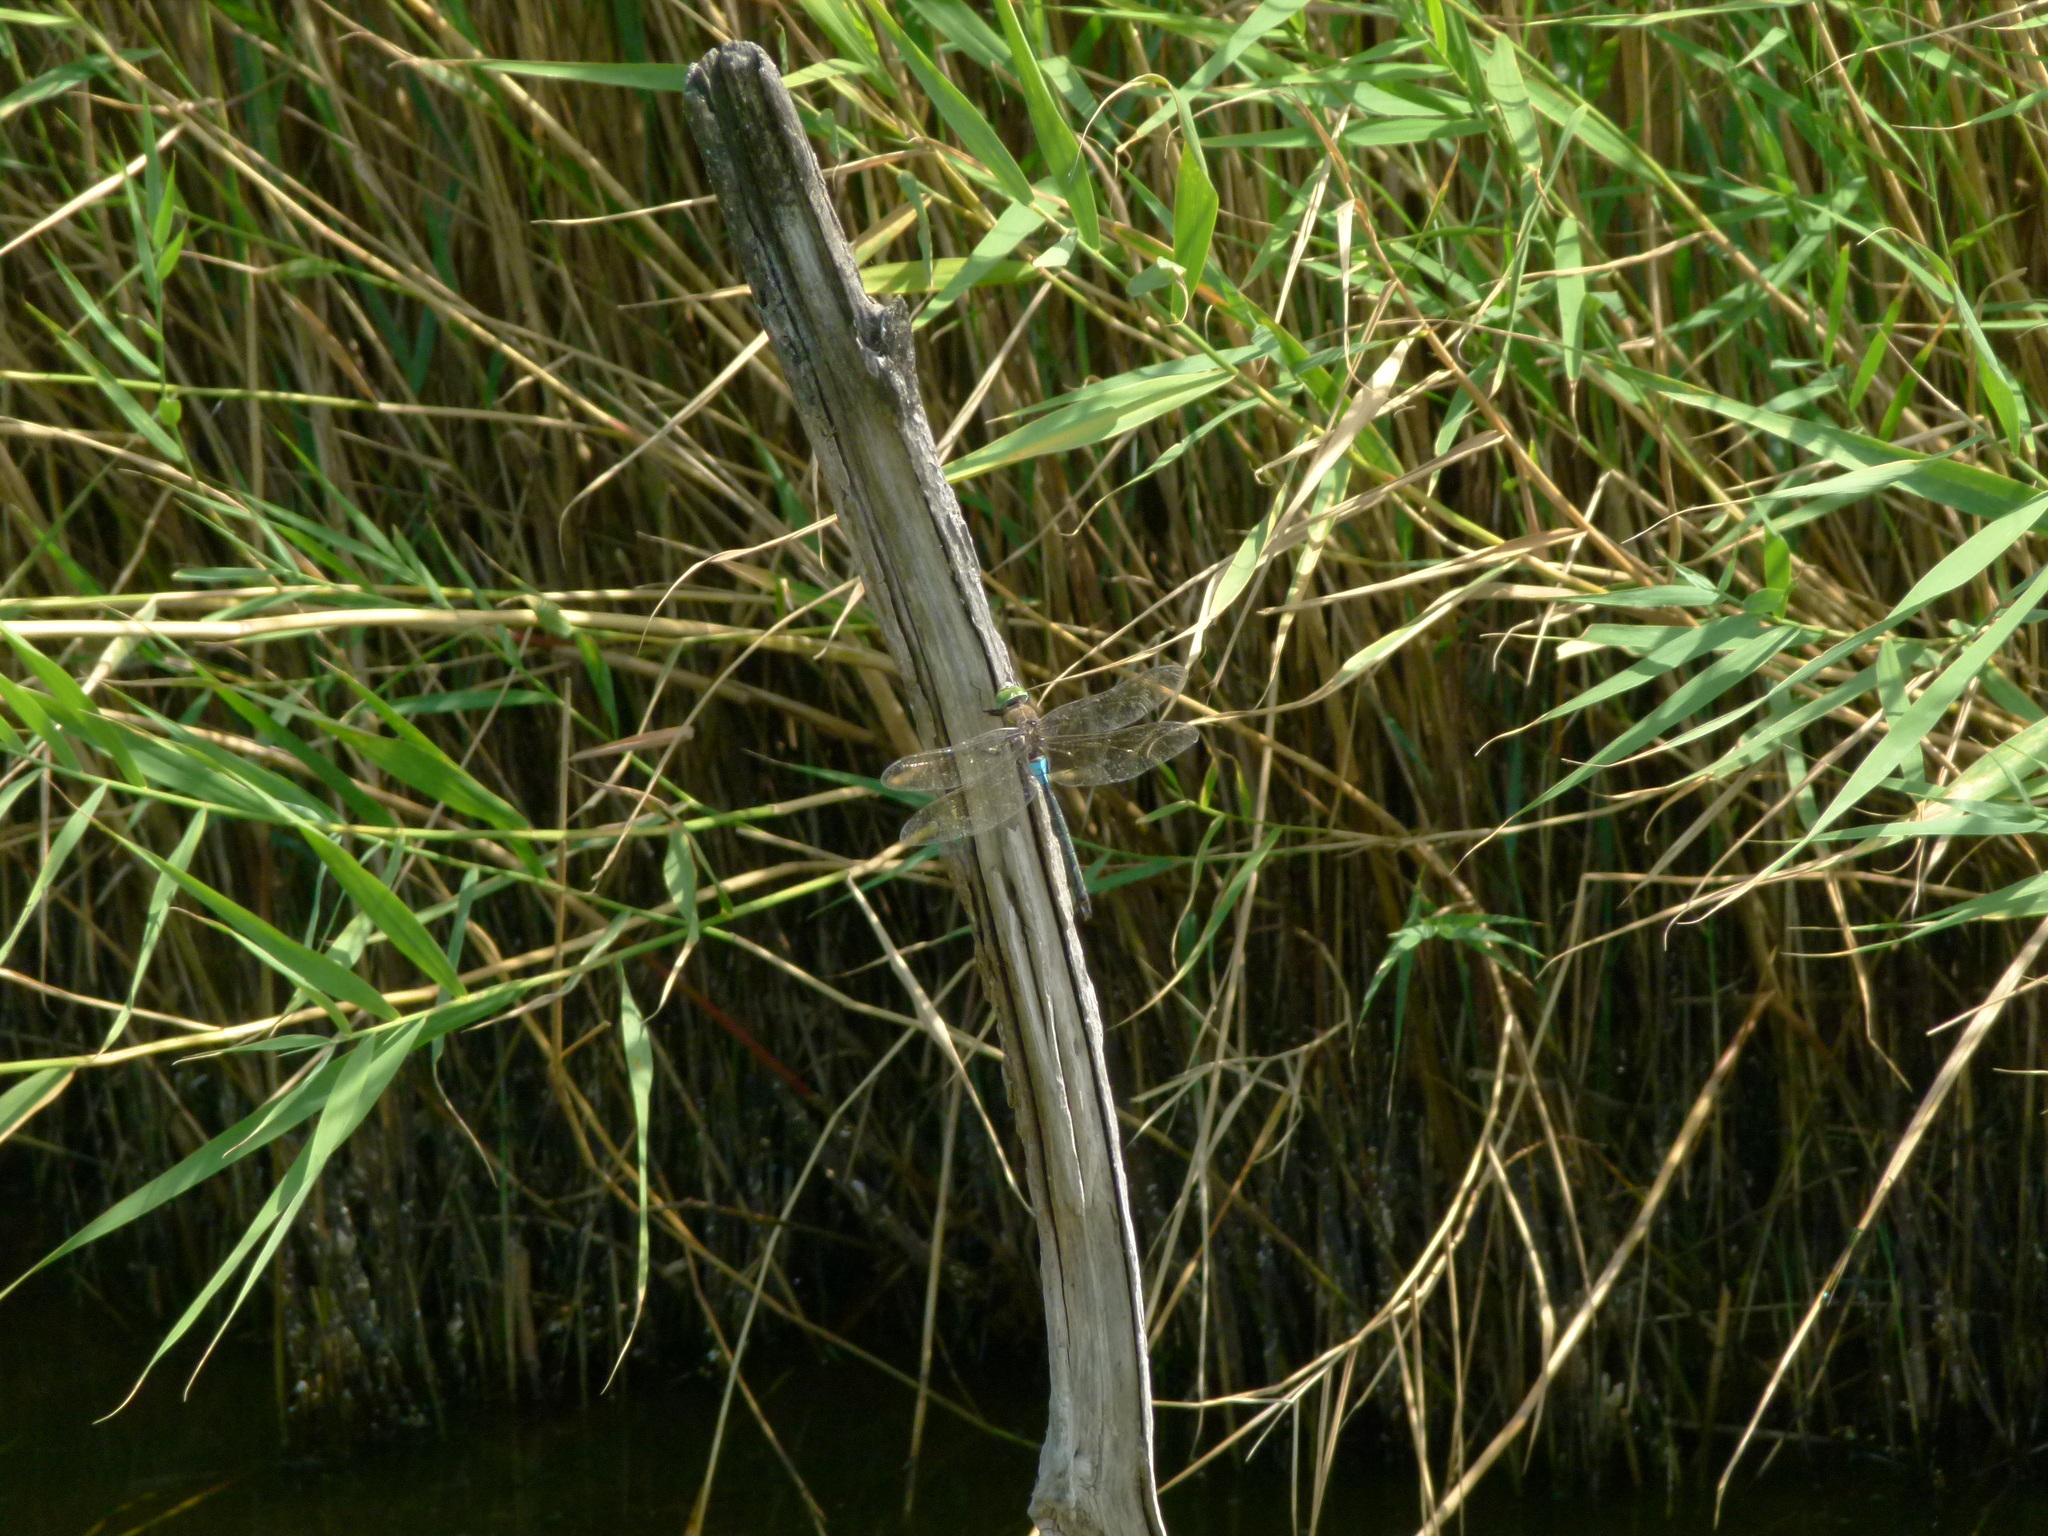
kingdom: Animalia
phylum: Arthropoda
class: Insecta
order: Odonata
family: Aeshnidae
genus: Anax
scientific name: Anax parthenope
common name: Lesser emperor
